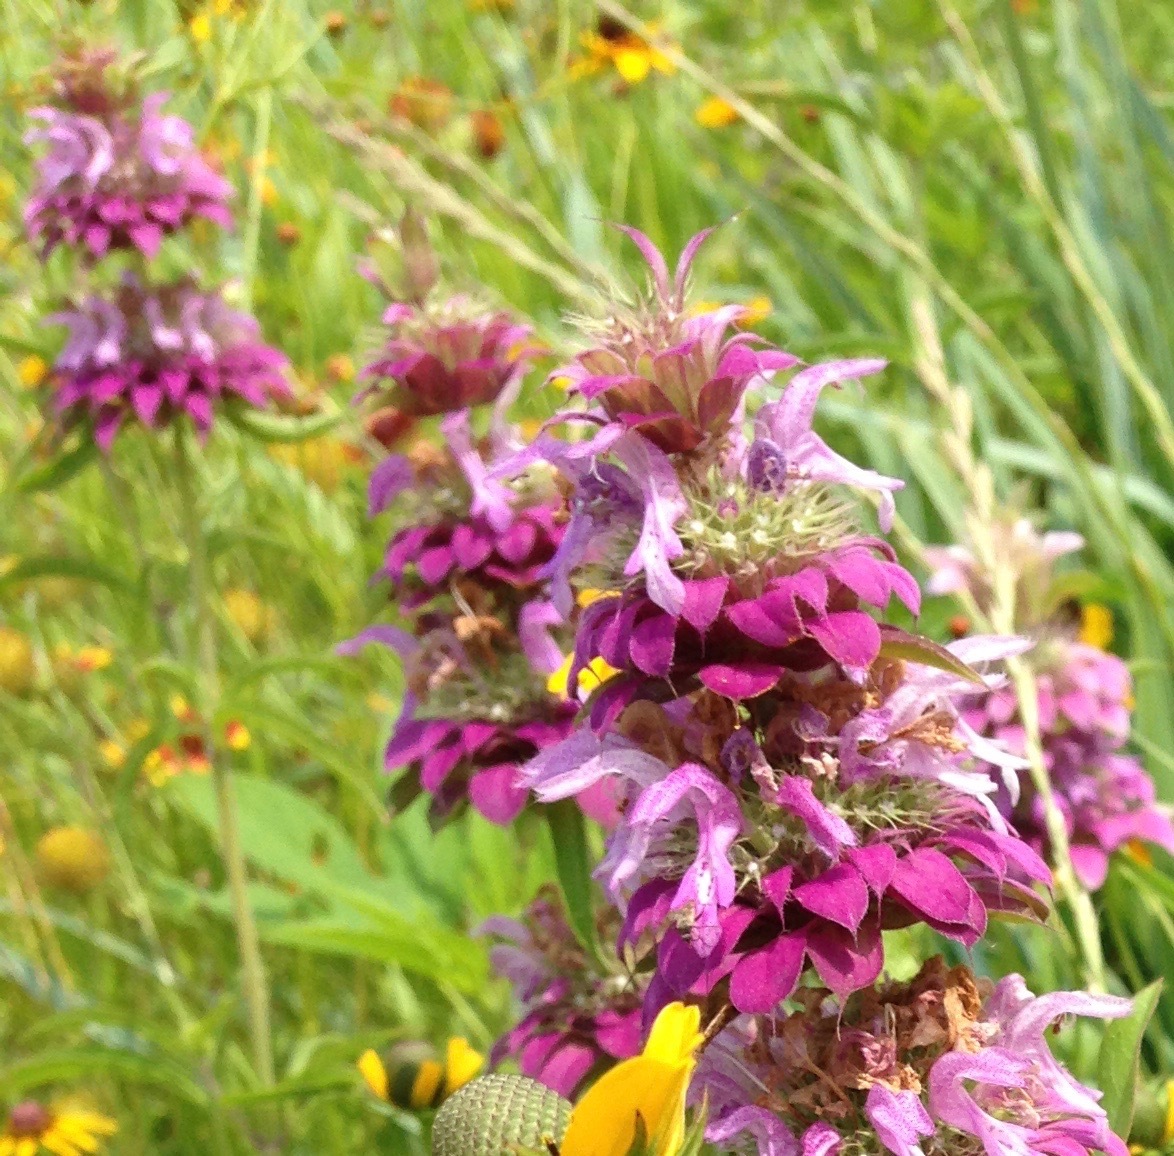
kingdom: Plantae
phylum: Tracheophyta
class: Magnoliopsida
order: Lamiales
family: Lamiaceae
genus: Monarda
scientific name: Monarda citriodora
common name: Lemon beebalm
